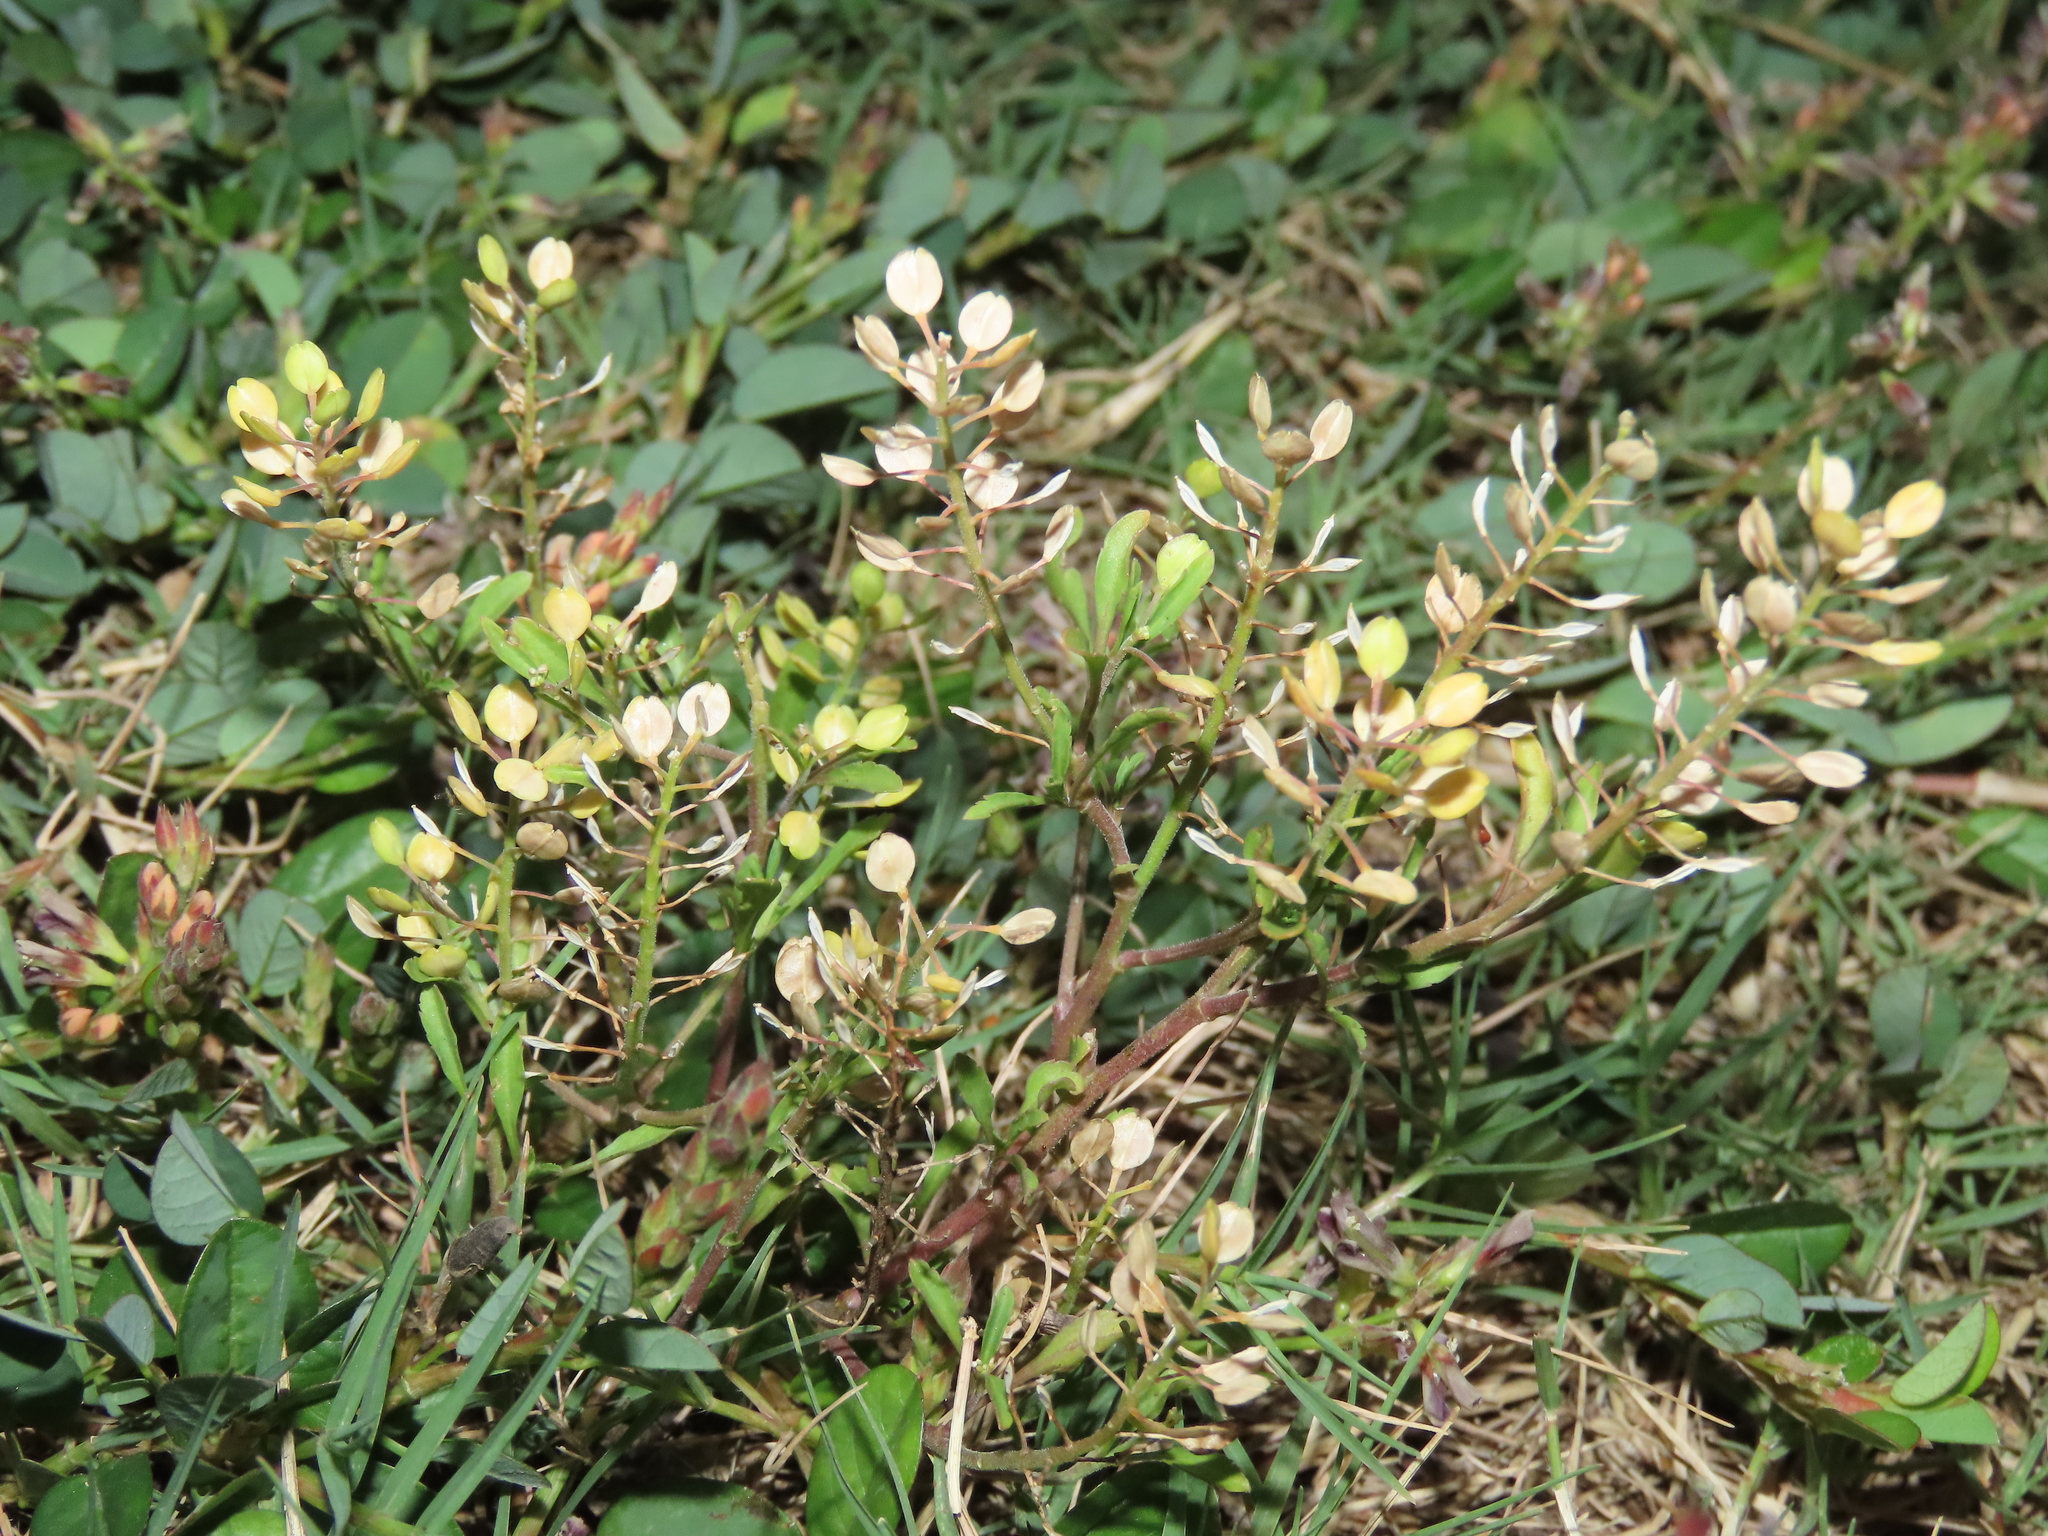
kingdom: Plantae
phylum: Tracheophyta
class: Magnoliopsida
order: Brassicales
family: Brassicaceae
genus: Lepidium
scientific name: Lepidium virginicum
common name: Least pepperwort
